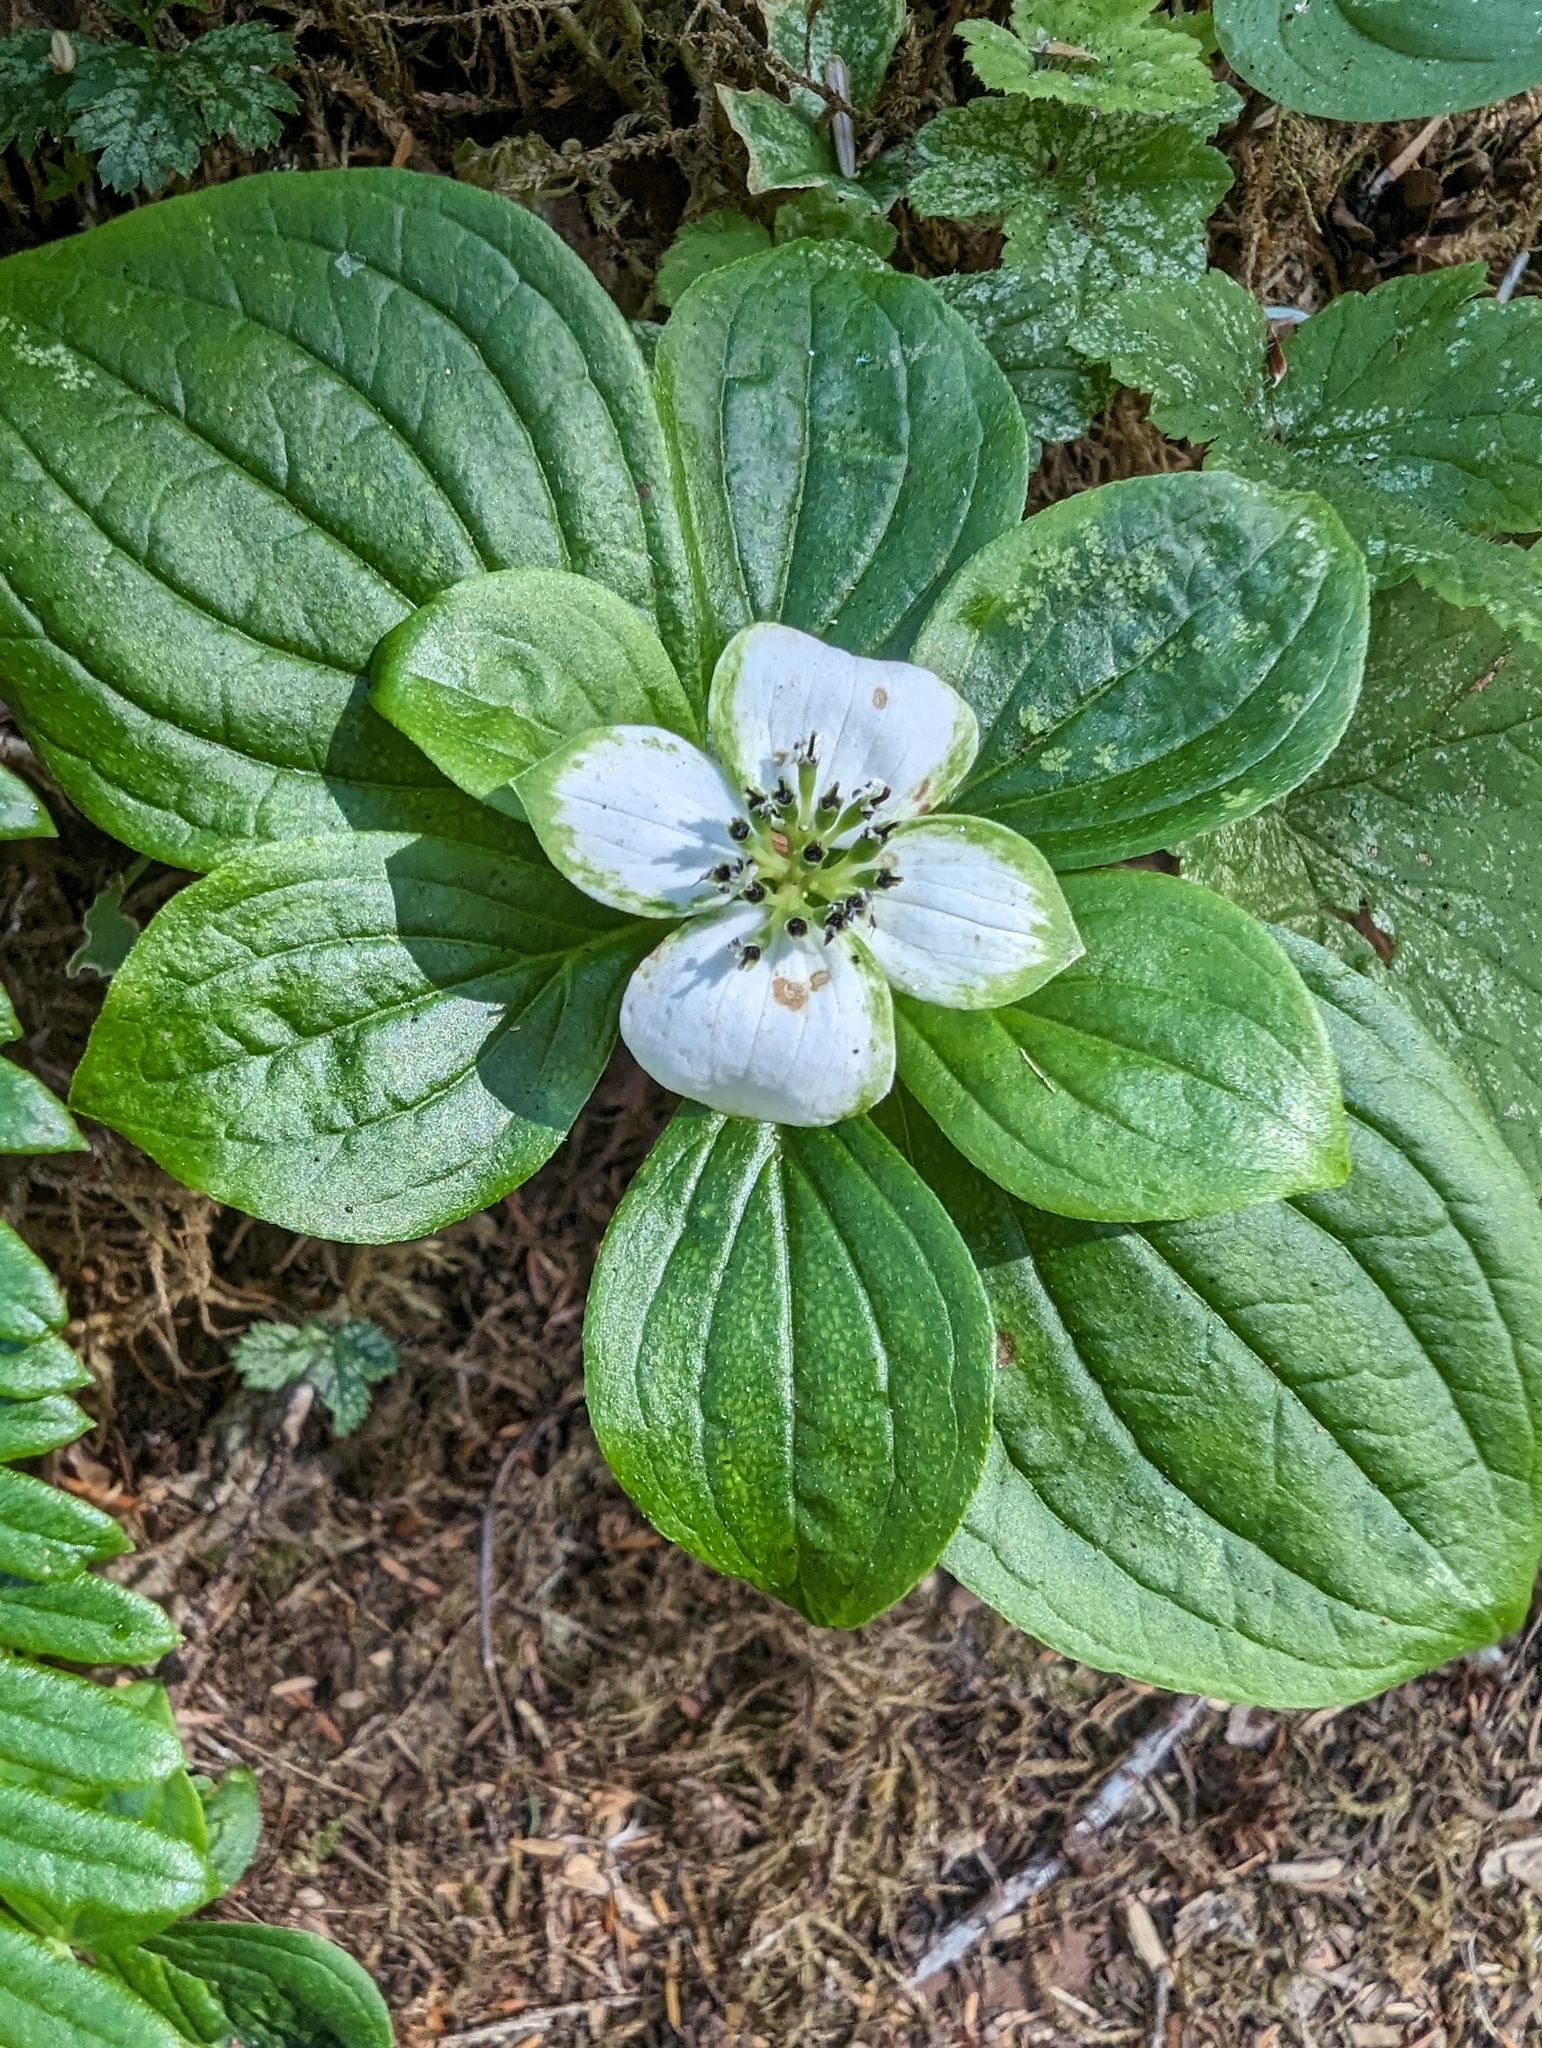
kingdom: Plantae
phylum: Tracheophyta
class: Magnoliopsida
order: Cornales
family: Cornaceae
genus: Cornus
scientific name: Cornus unalaschkensis
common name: Alaska bunchberry
